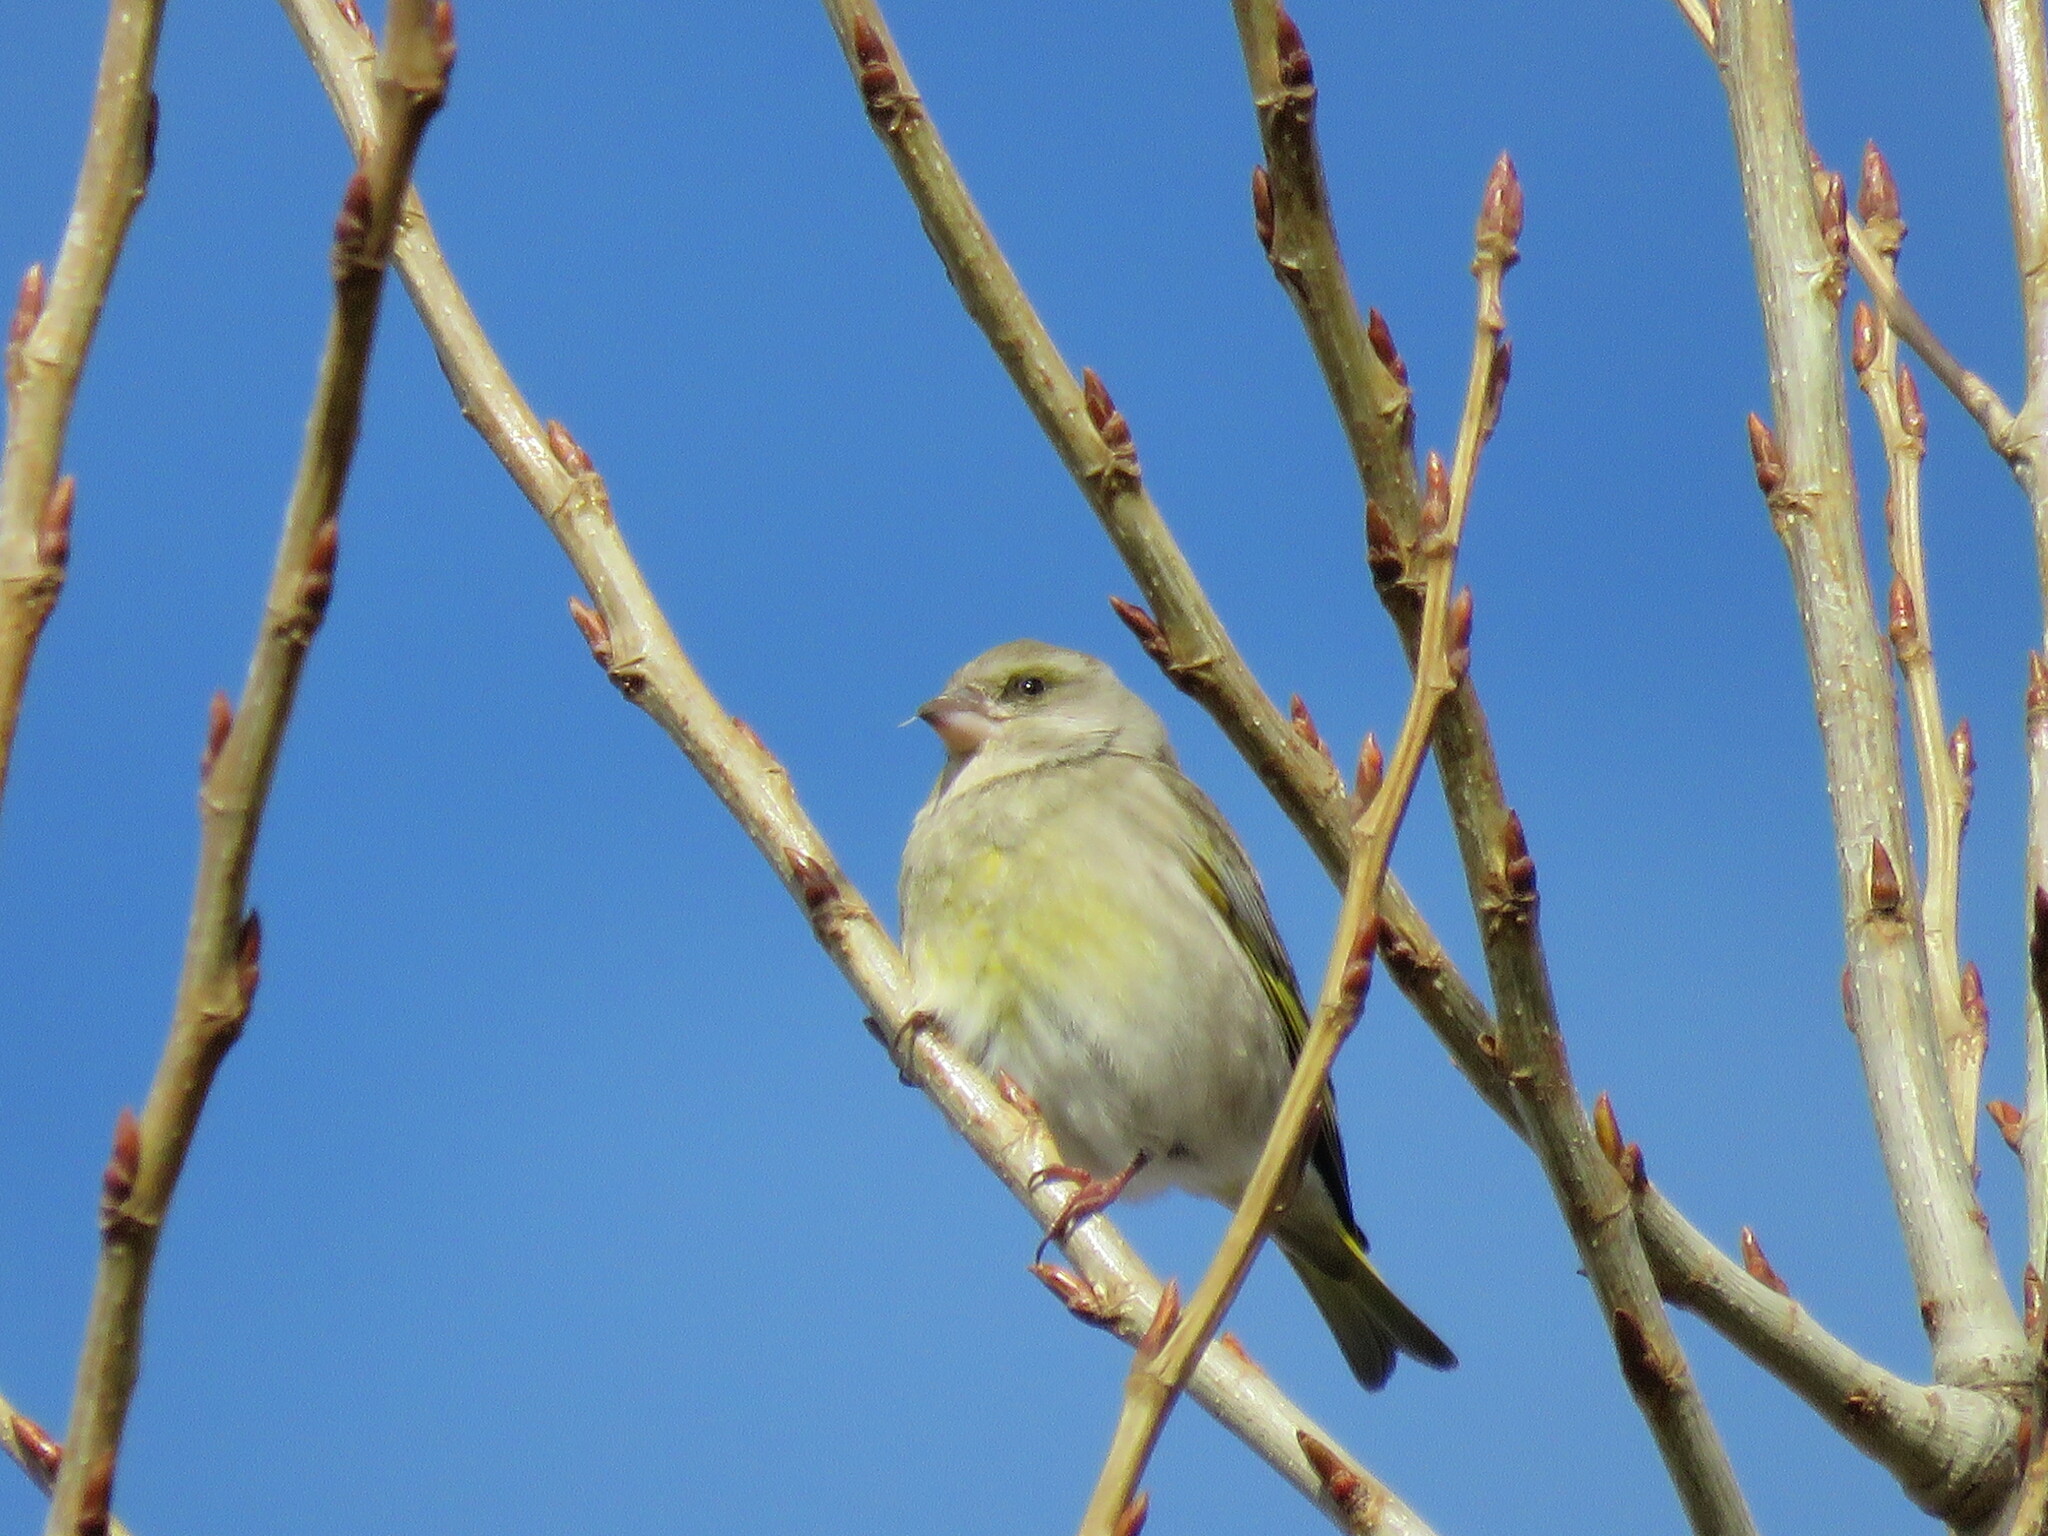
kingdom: Plantae
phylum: Tracheophyta
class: Liliopsida
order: Poales
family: Poaceae
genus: Chloris
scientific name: Chloris chloris
